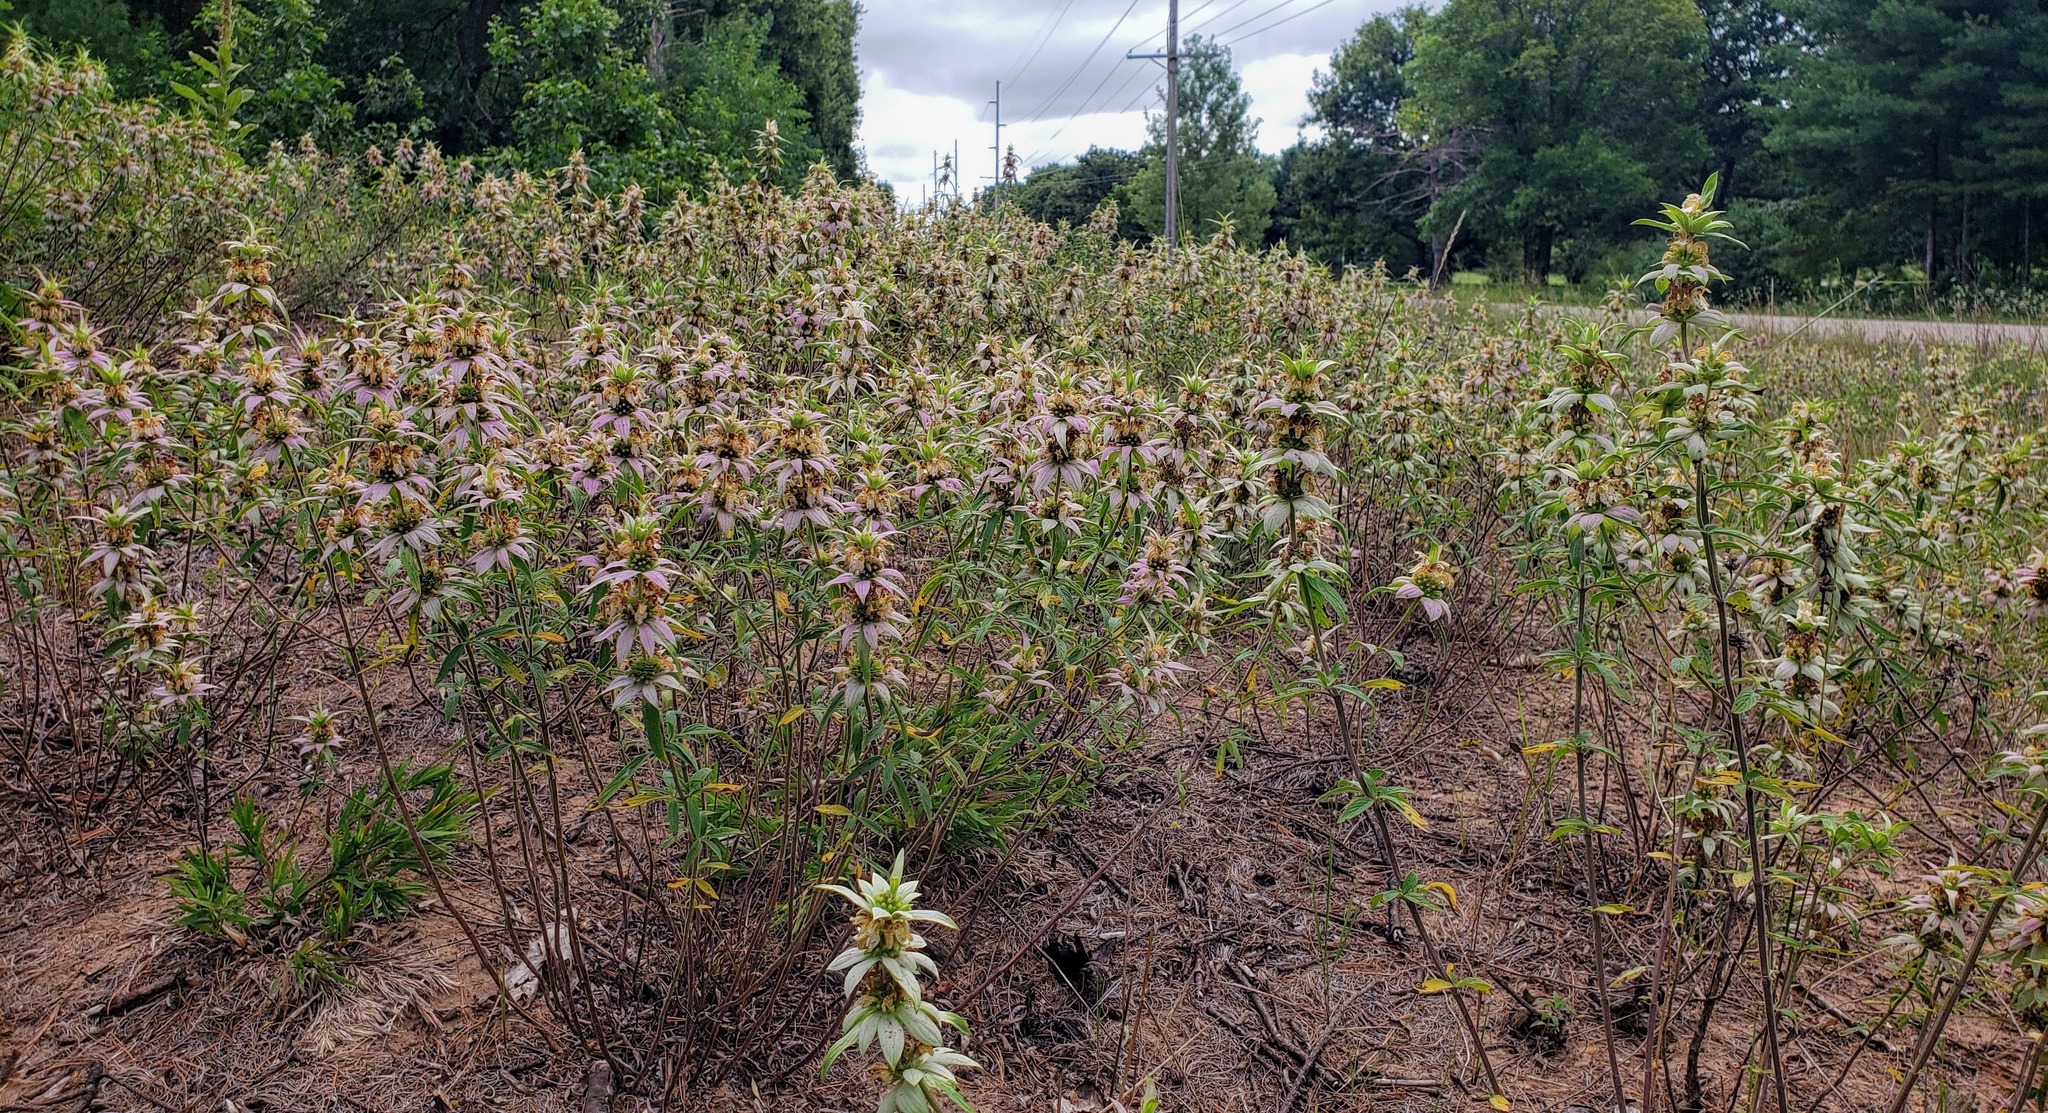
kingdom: Plantae
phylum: Tracheophyta
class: Magnoliopsida
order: Lamiales
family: Lamiaceae
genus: Monarda
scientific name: Monarda punctata
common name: Dotted monarda
